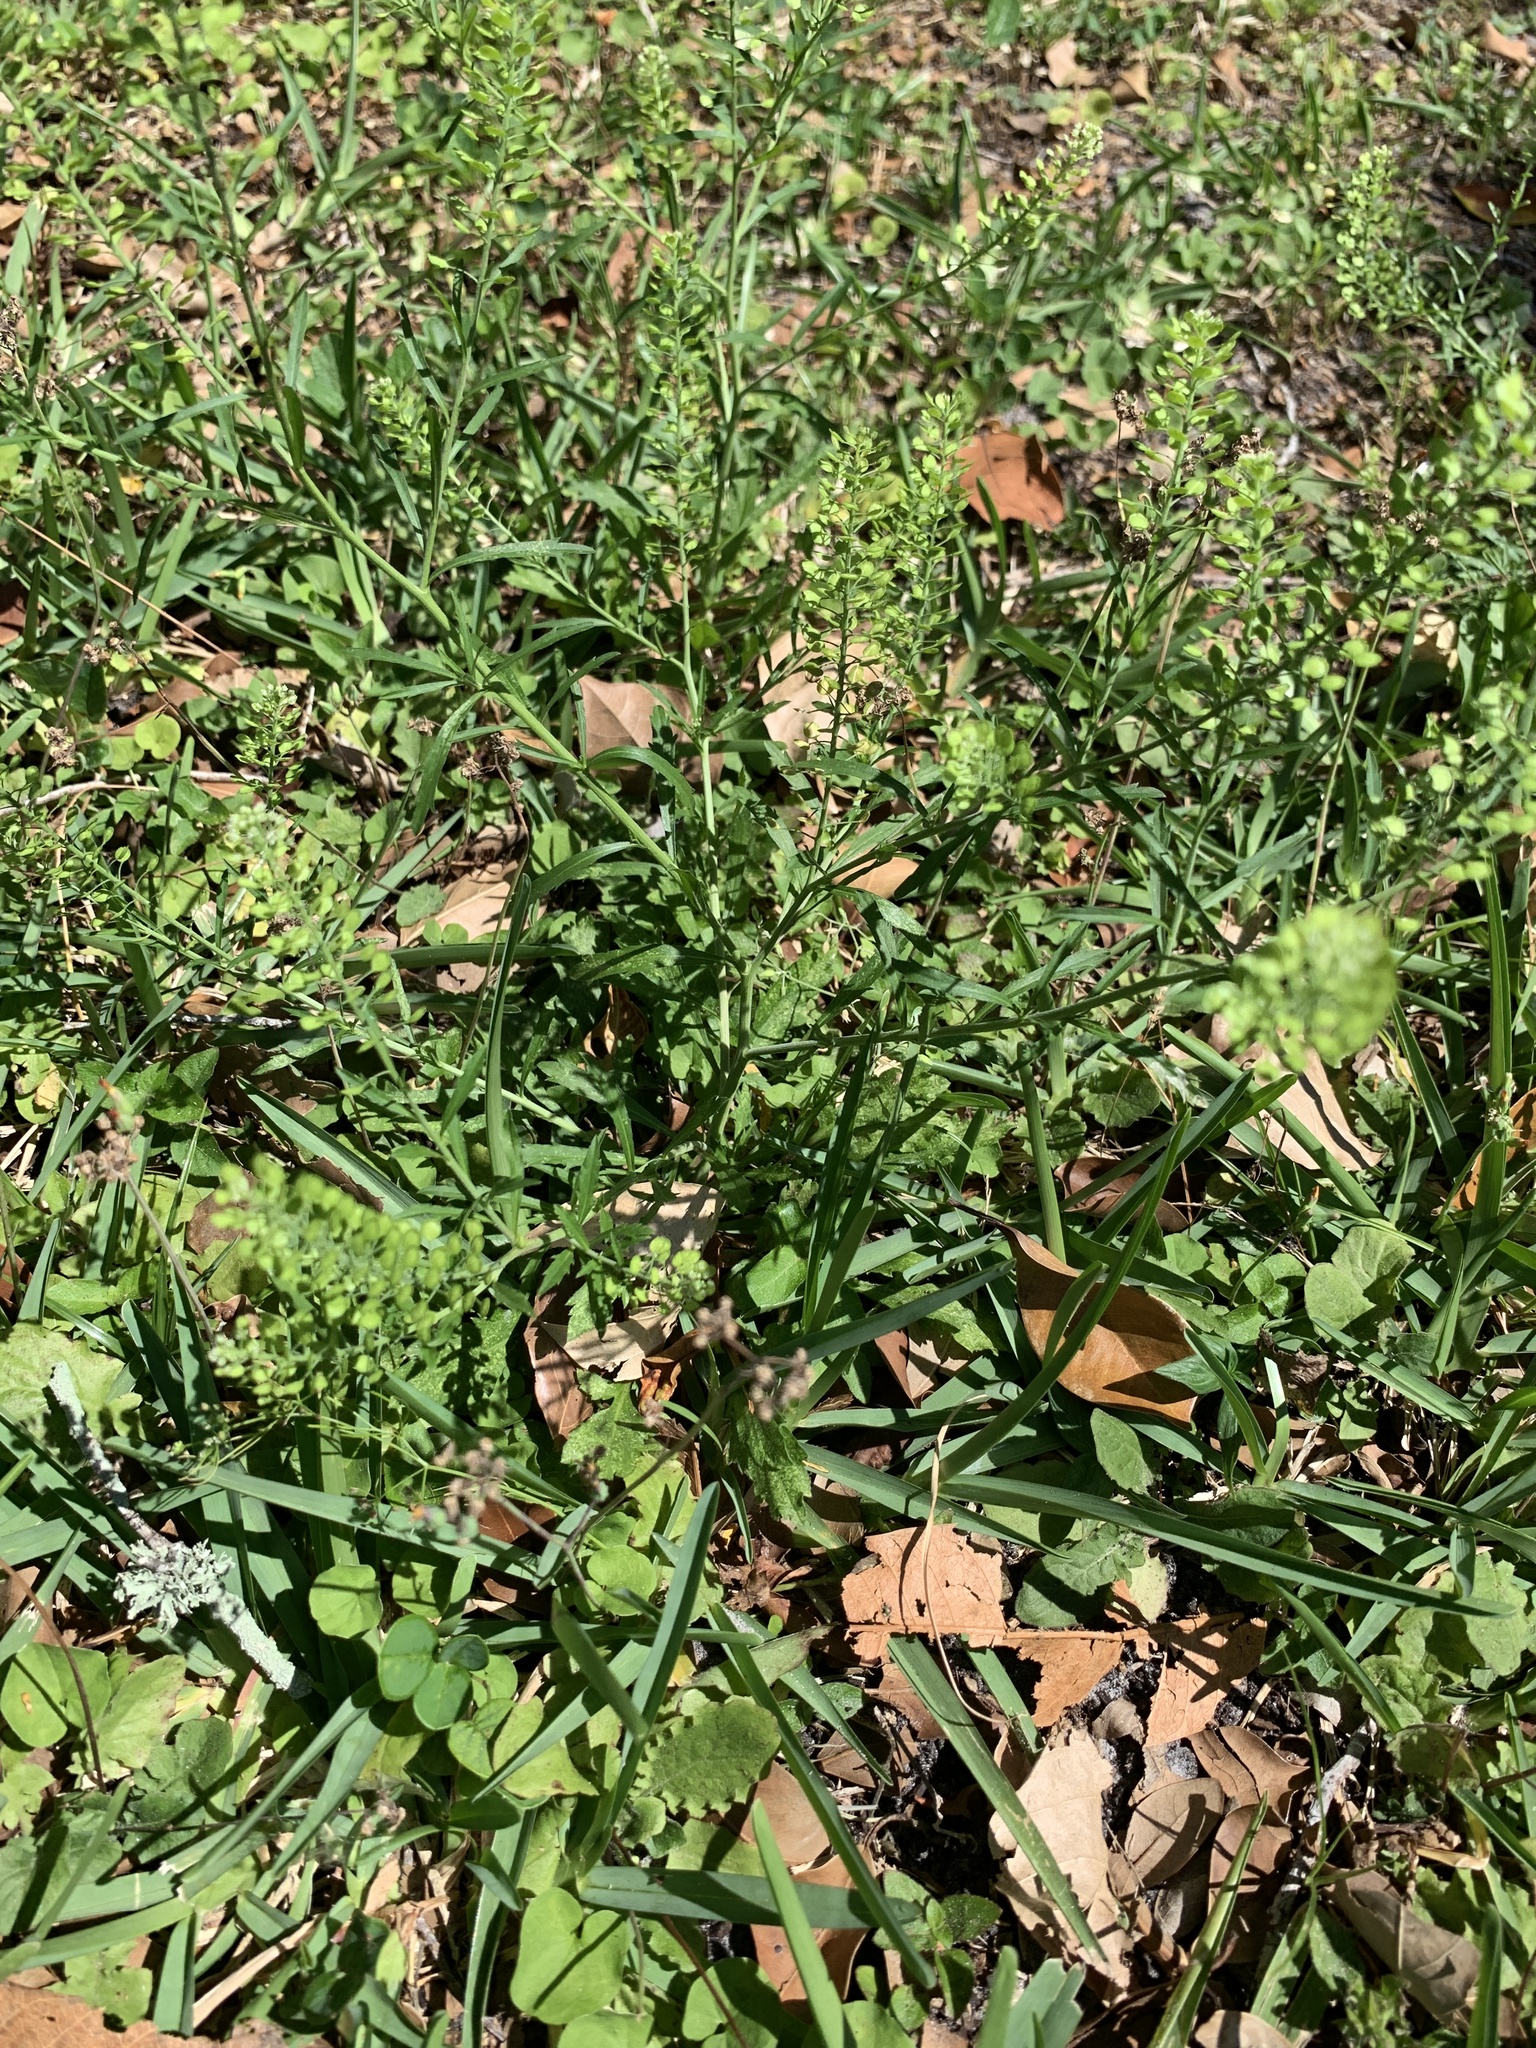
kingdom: Plantae
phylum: Tracheophyta
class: Magnoliopsida
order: Brassicales
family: Brassicaceae
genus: Lepidium
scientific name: Lepidium virginicum
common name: Least pepperwort
